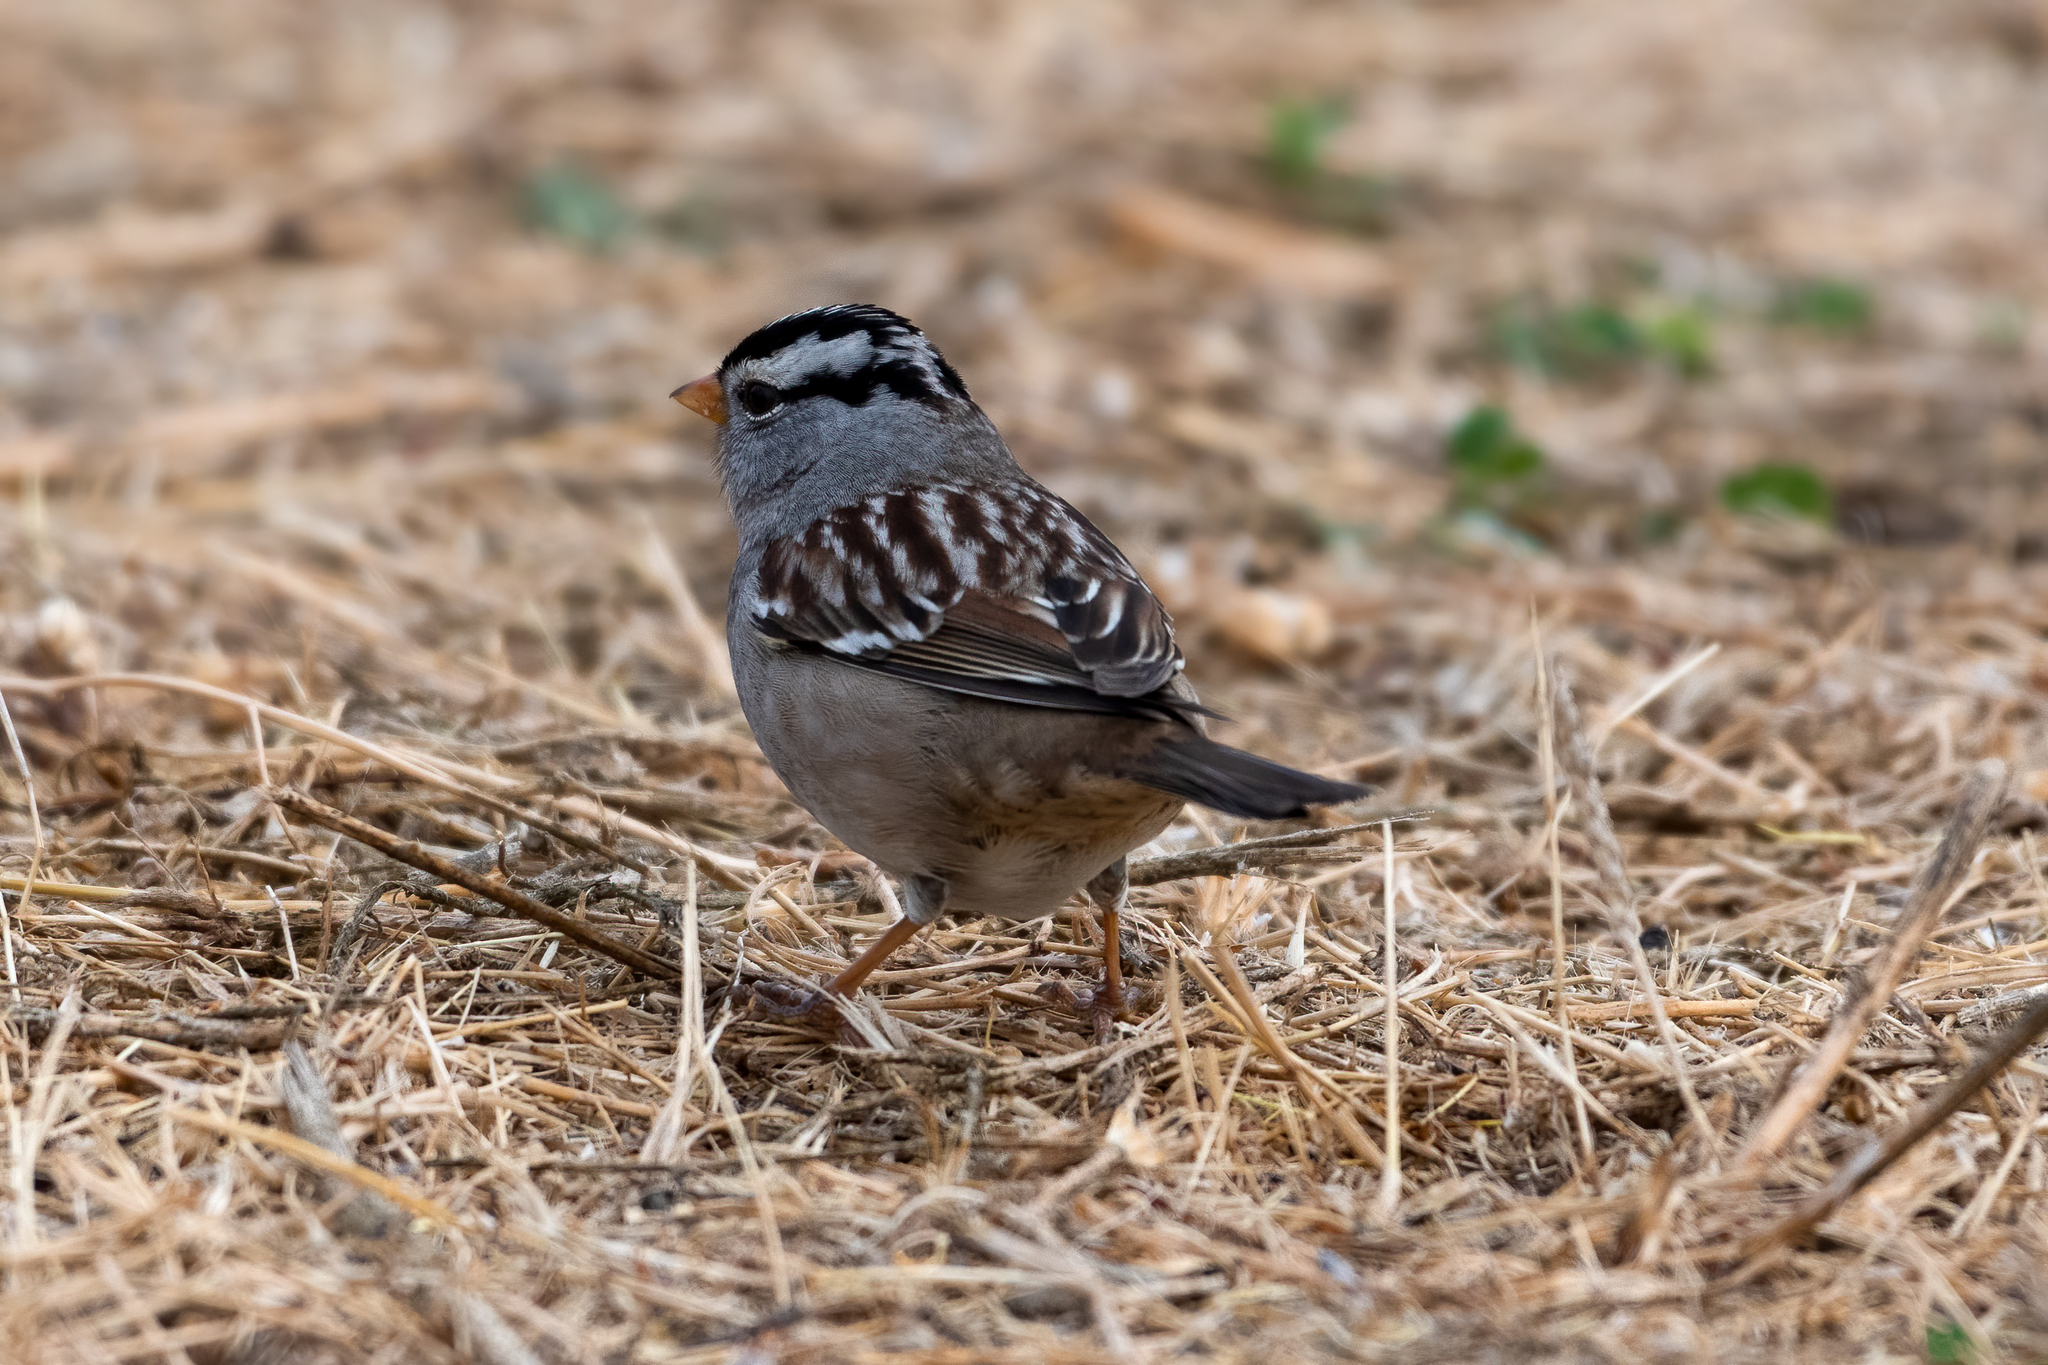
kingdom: Animalia
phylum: Chordata
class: Aves
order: Passeriformes
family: Passerellidae
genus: Zonotrichia
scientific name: Zonotrichia leucophrys
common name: White-crowned sparrow
